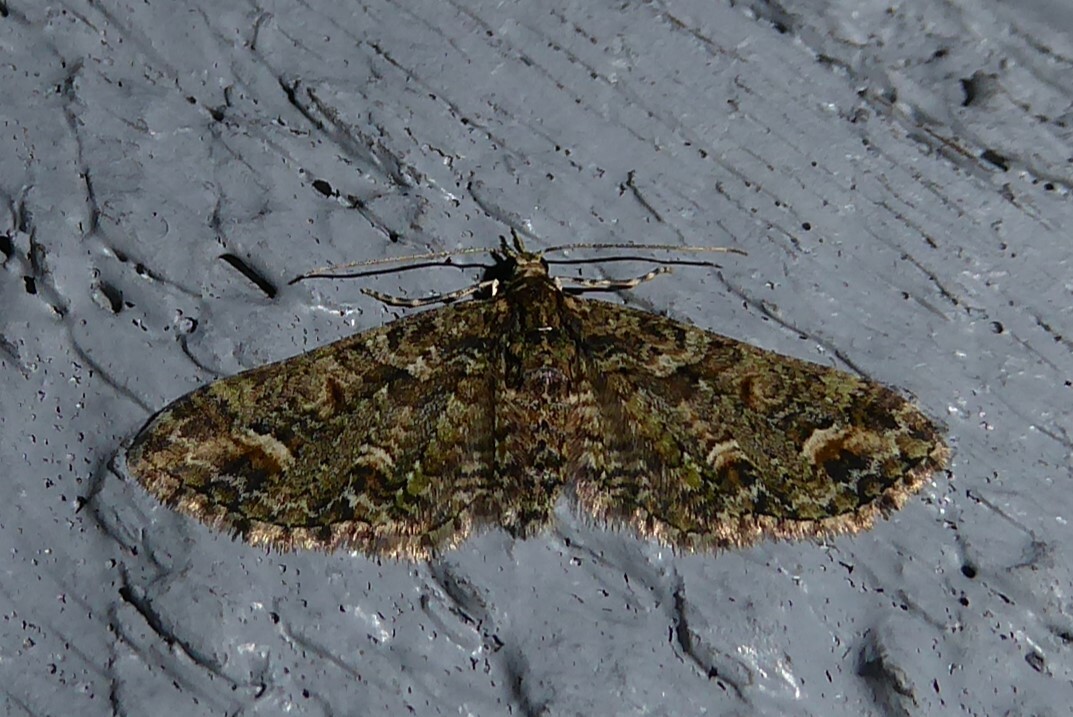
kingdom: Animalia
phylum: Arthropoda
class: Insecta
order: Lepidoptera
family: Geometridae
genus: Idaea
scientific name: Idaea mutanda
